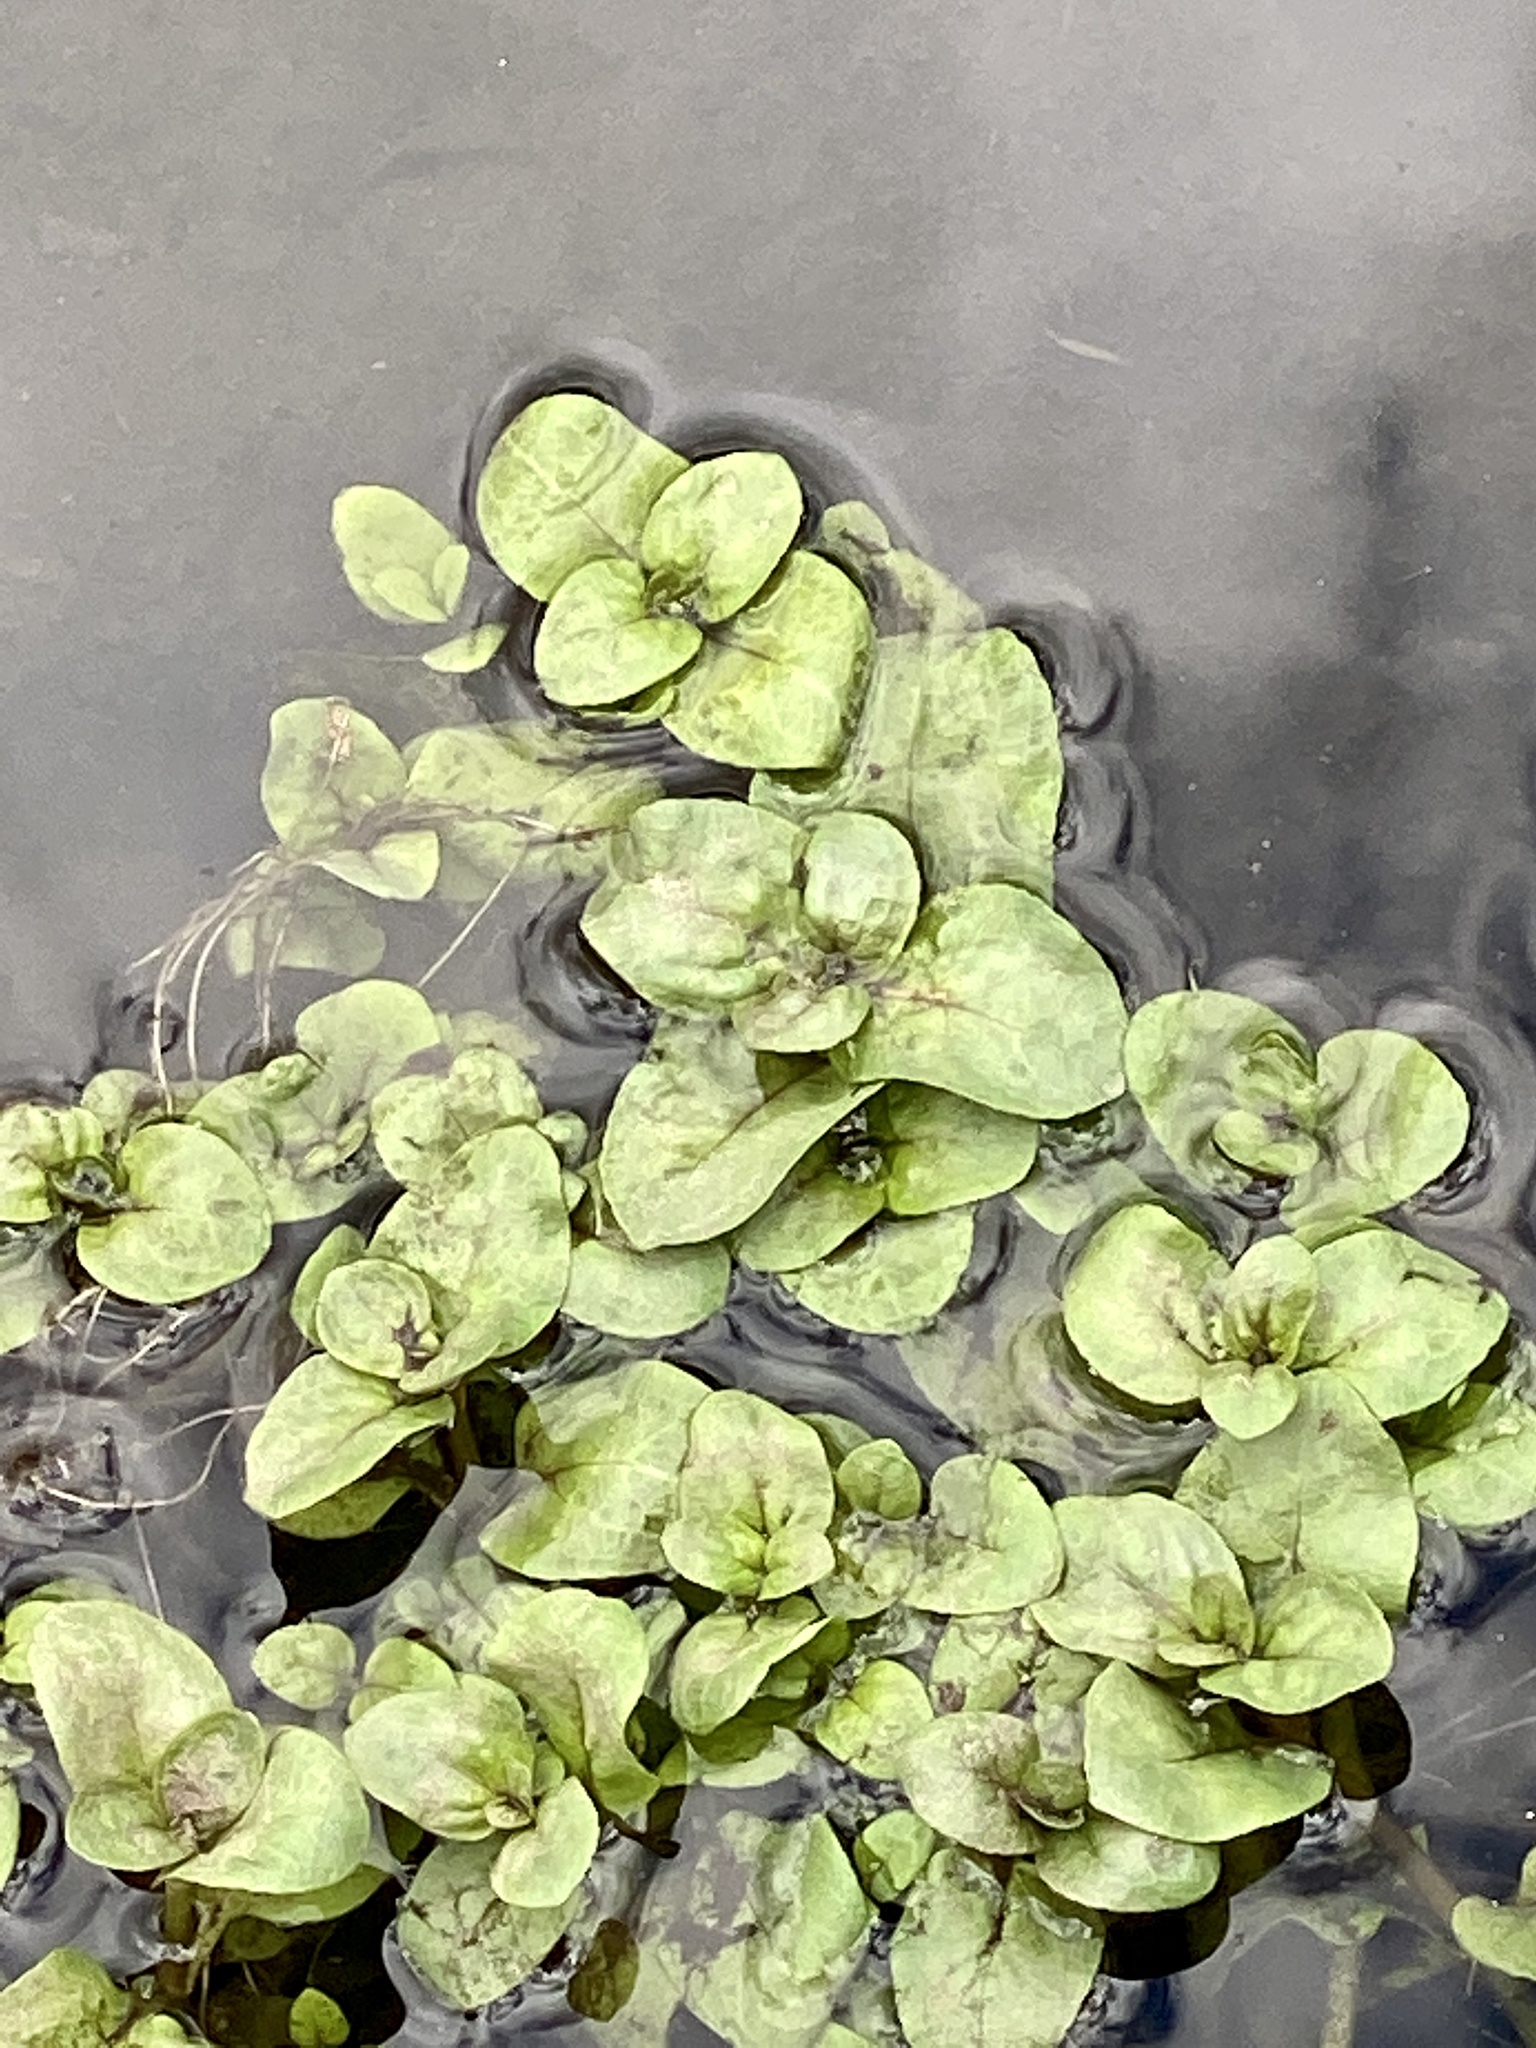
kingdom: Plantae
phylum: Tracheophyta
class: Magnoliopsida
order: Brassicales
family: Brassicaceae
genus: Nasturtium
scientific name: Nasturtium officinale
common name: Watercress
